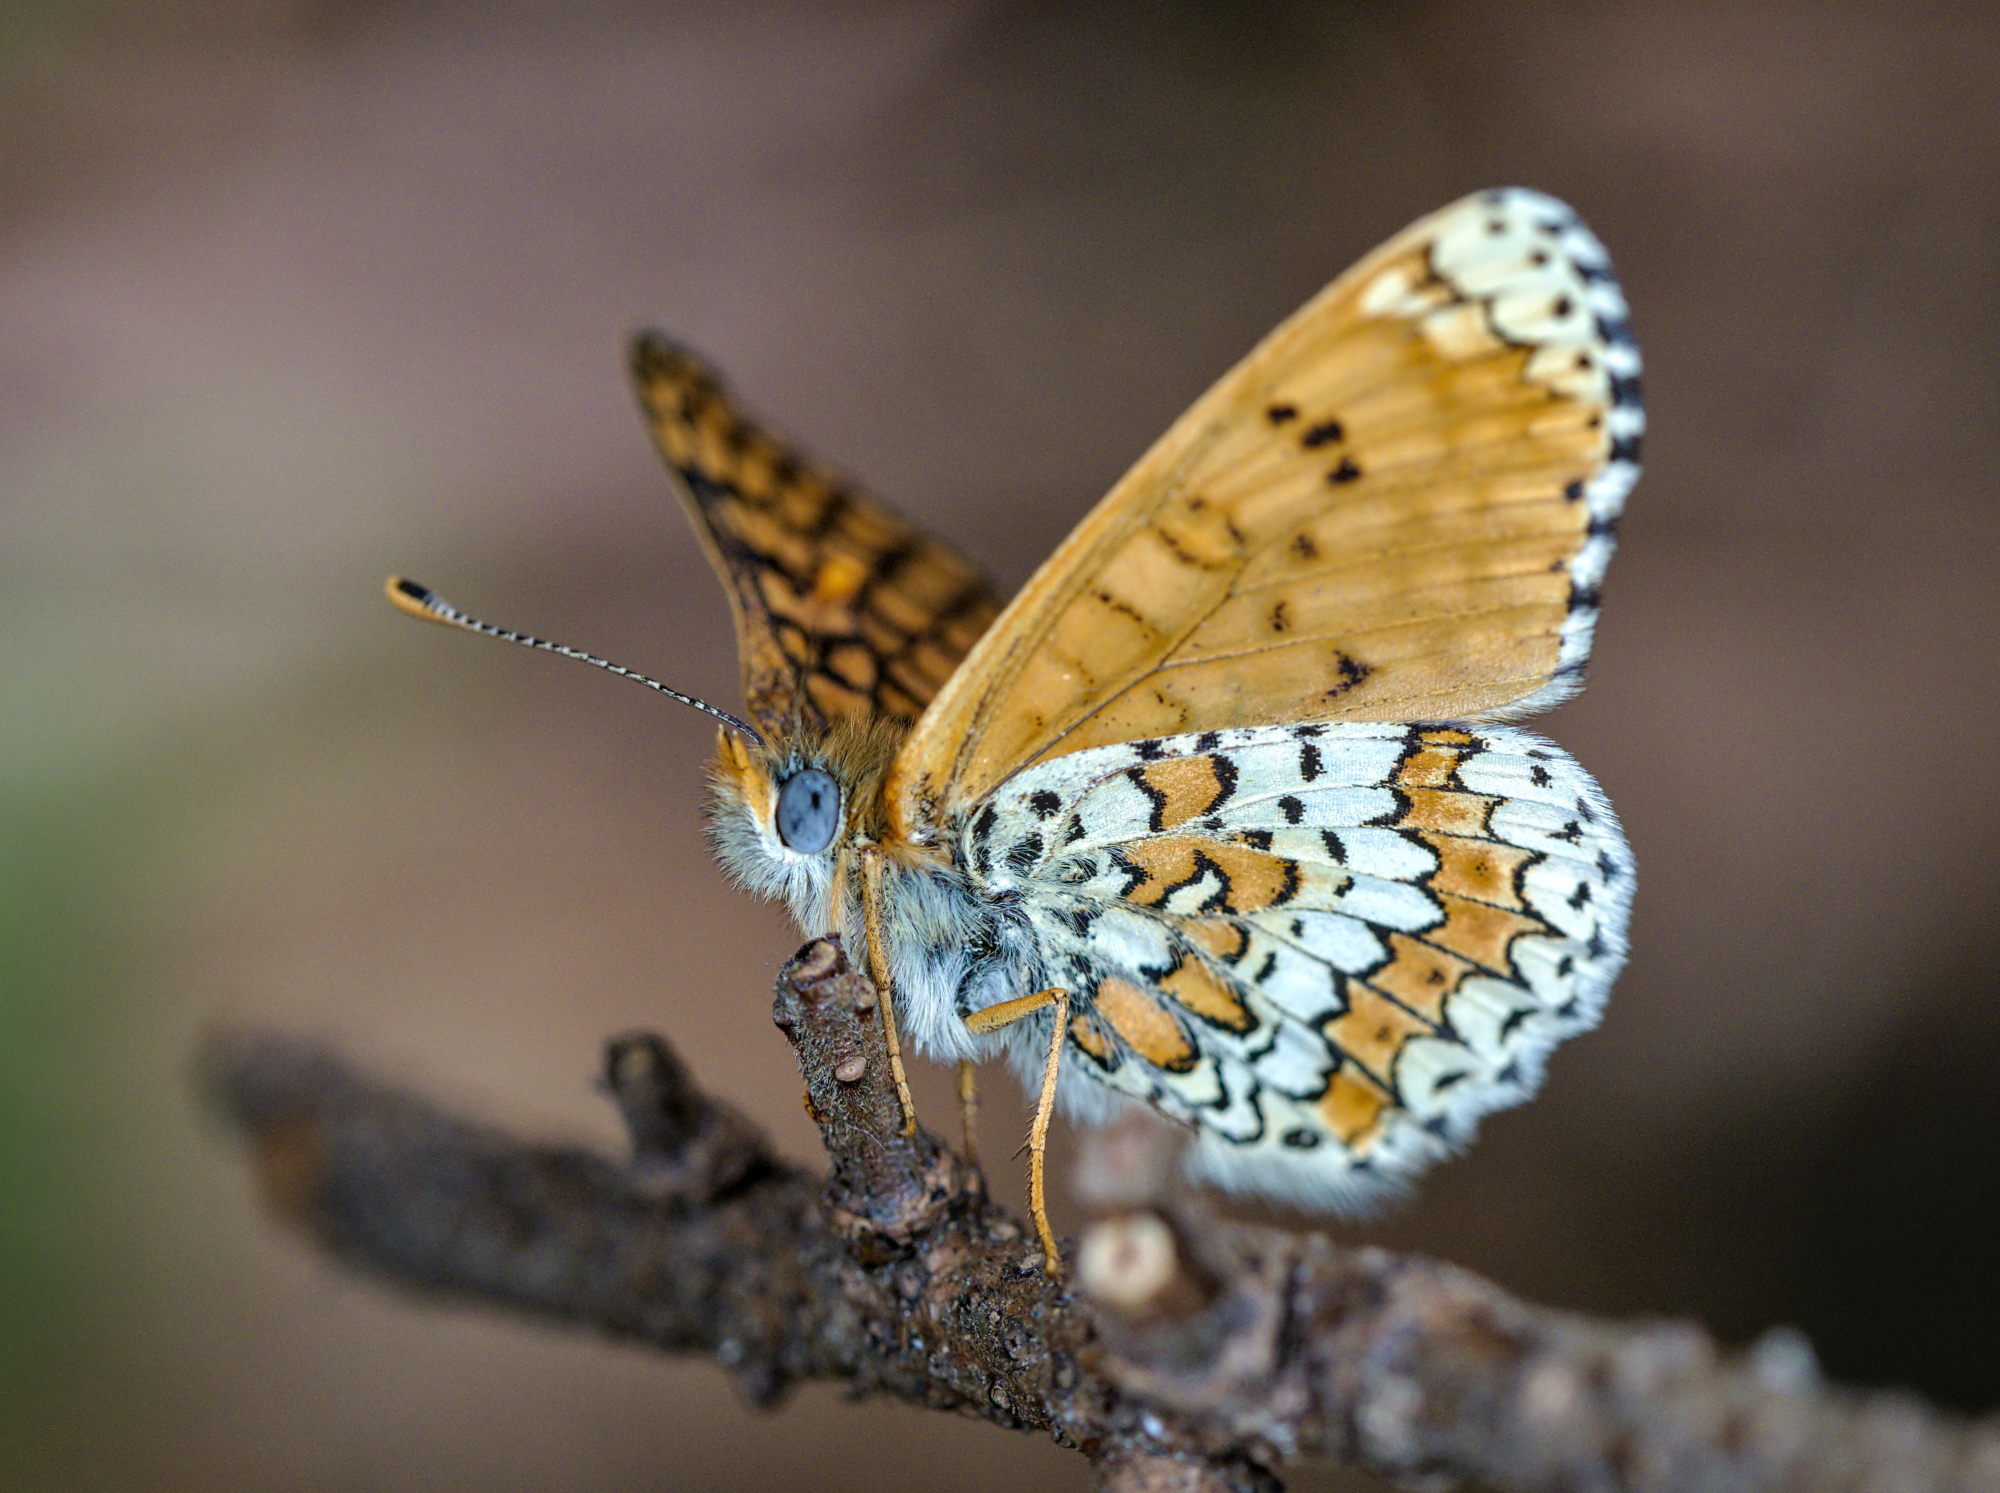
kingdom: Animalia
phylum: Arthropoda
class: Insecta
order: Lepidoptera
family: Nymphalidae
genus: Melitaea
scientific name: Melitaea cinxia
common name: Glanville fritillary
